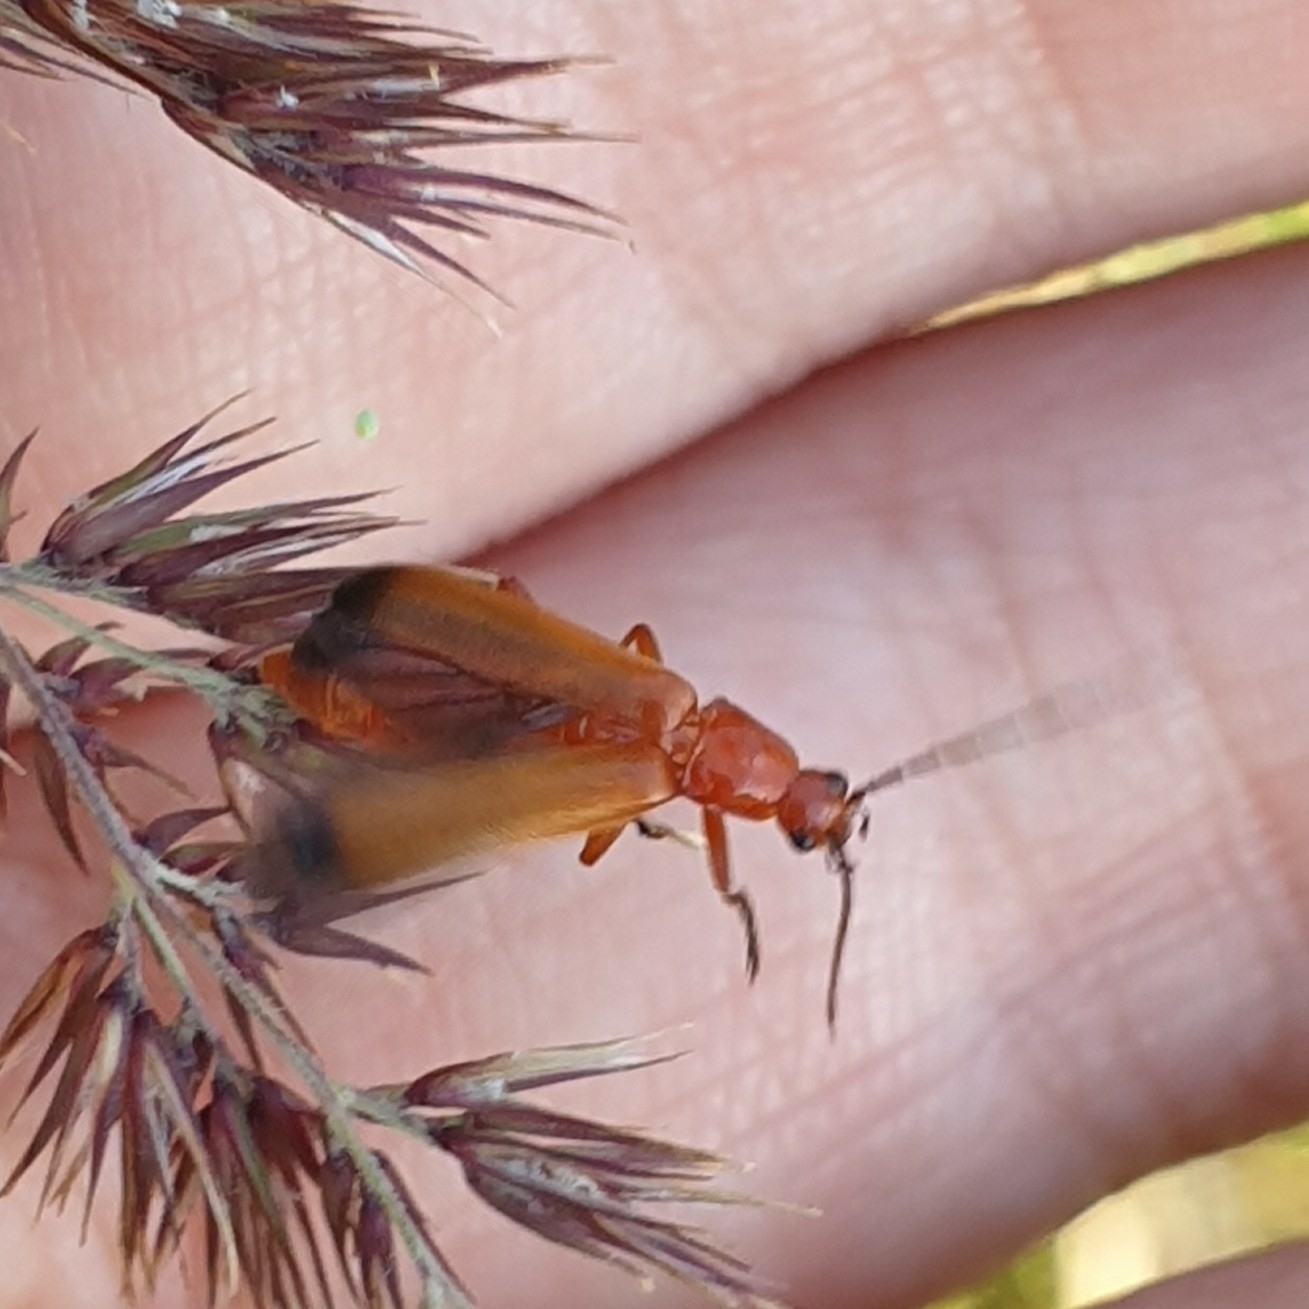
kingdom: Animalia
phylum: Arthropoda
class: Insecta
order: Coleoptera
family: Cantharidae
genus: Rhagonycha
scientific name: Rhagonycha fulva
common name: Common red soldier beetle
